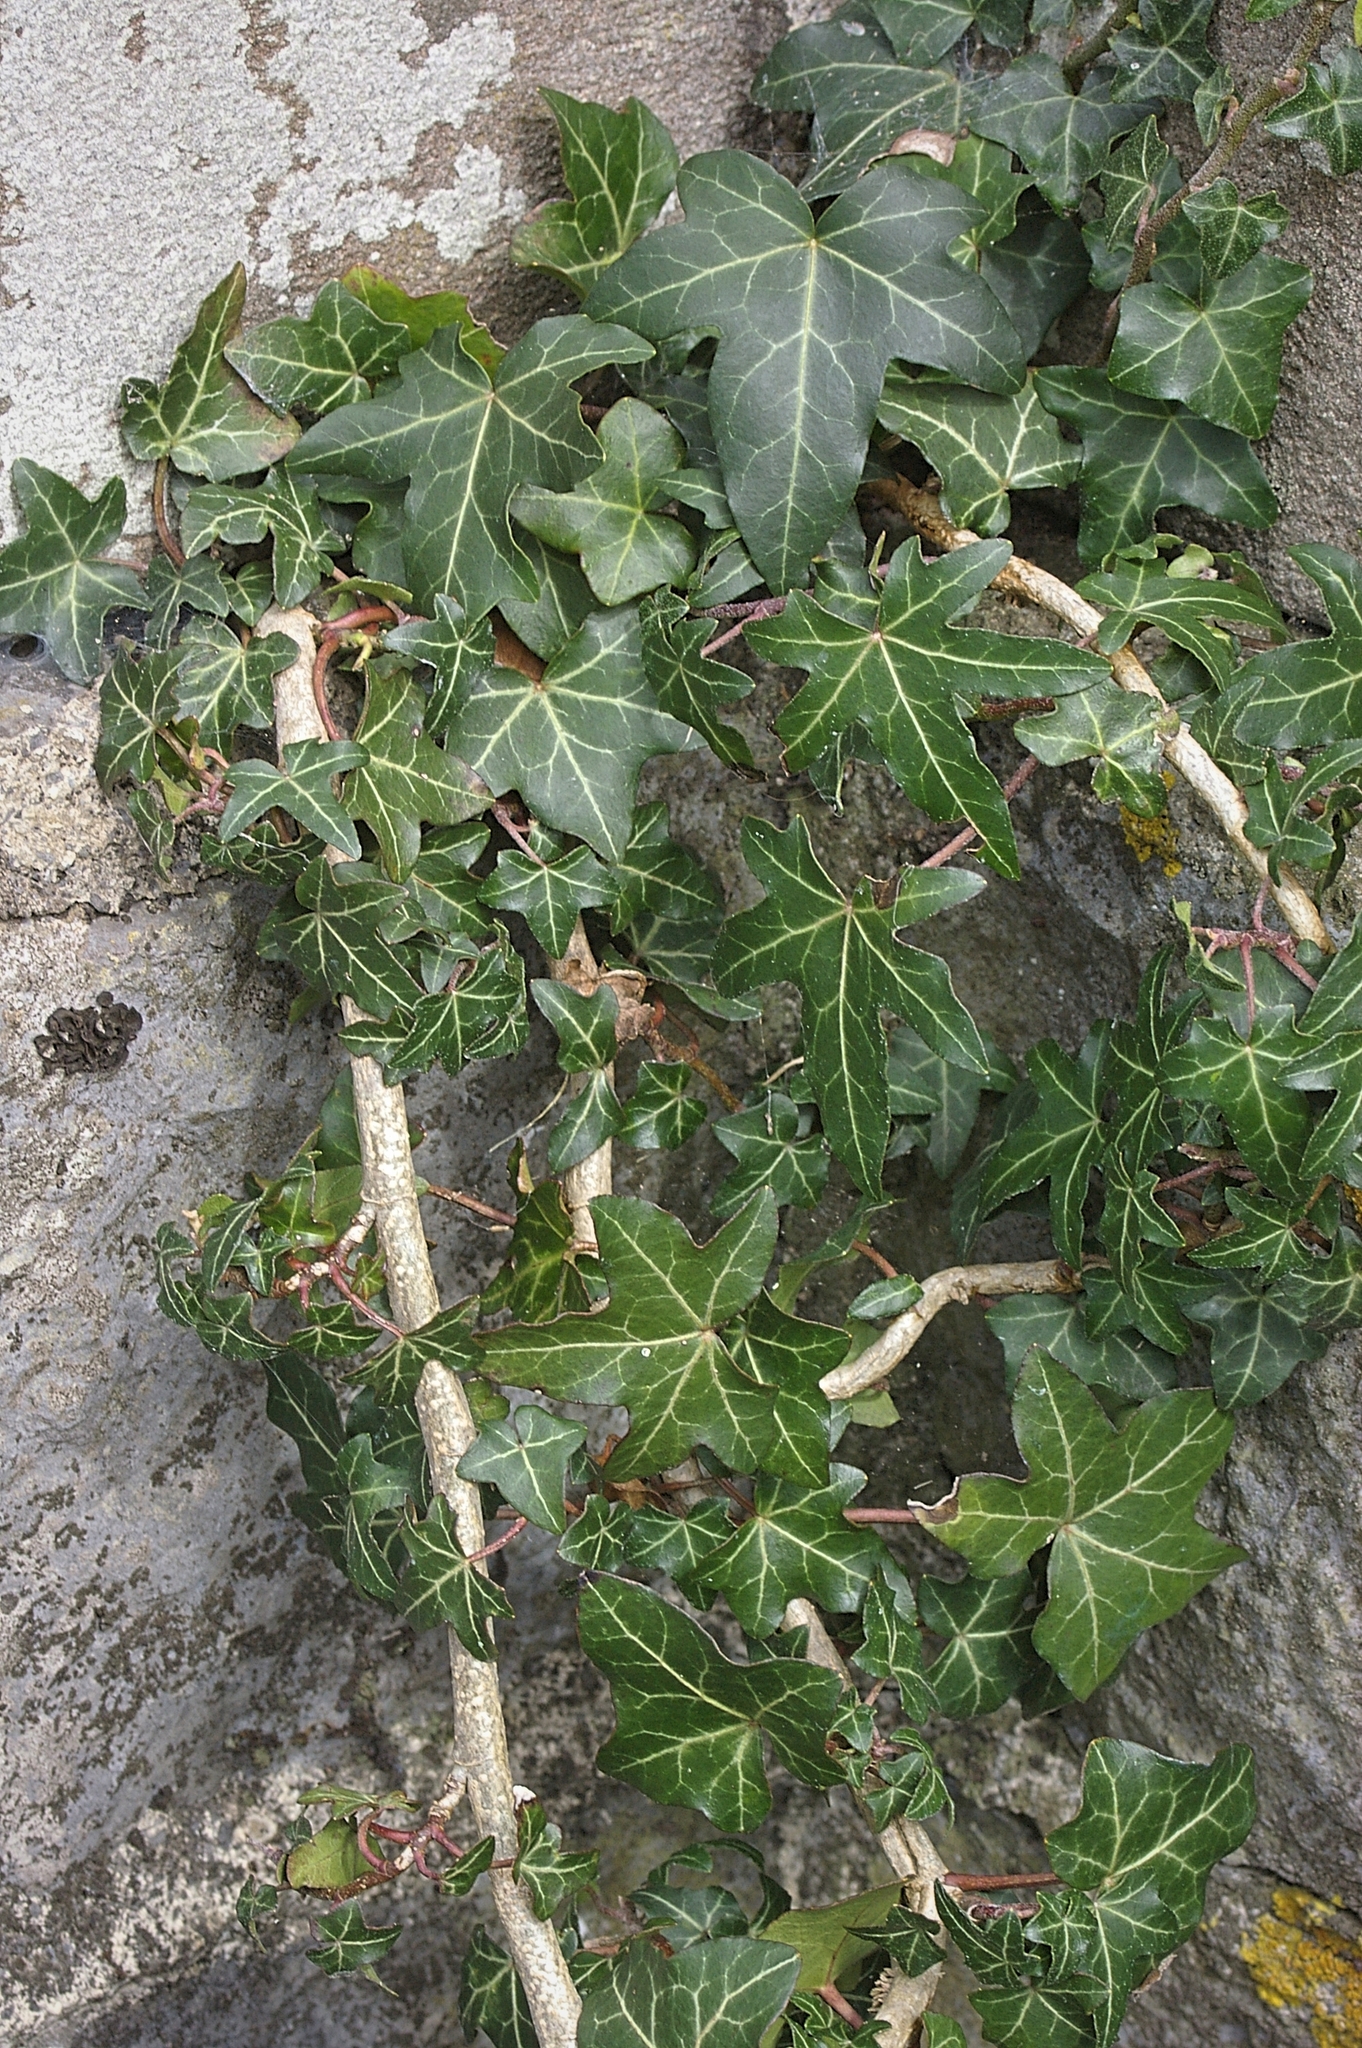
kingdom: Plantae
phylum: Tracheophyta
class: Magnoliopsida
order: Apiales
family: Araliaceae
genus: Hedera
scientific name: Hedera helix
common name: Ivy
